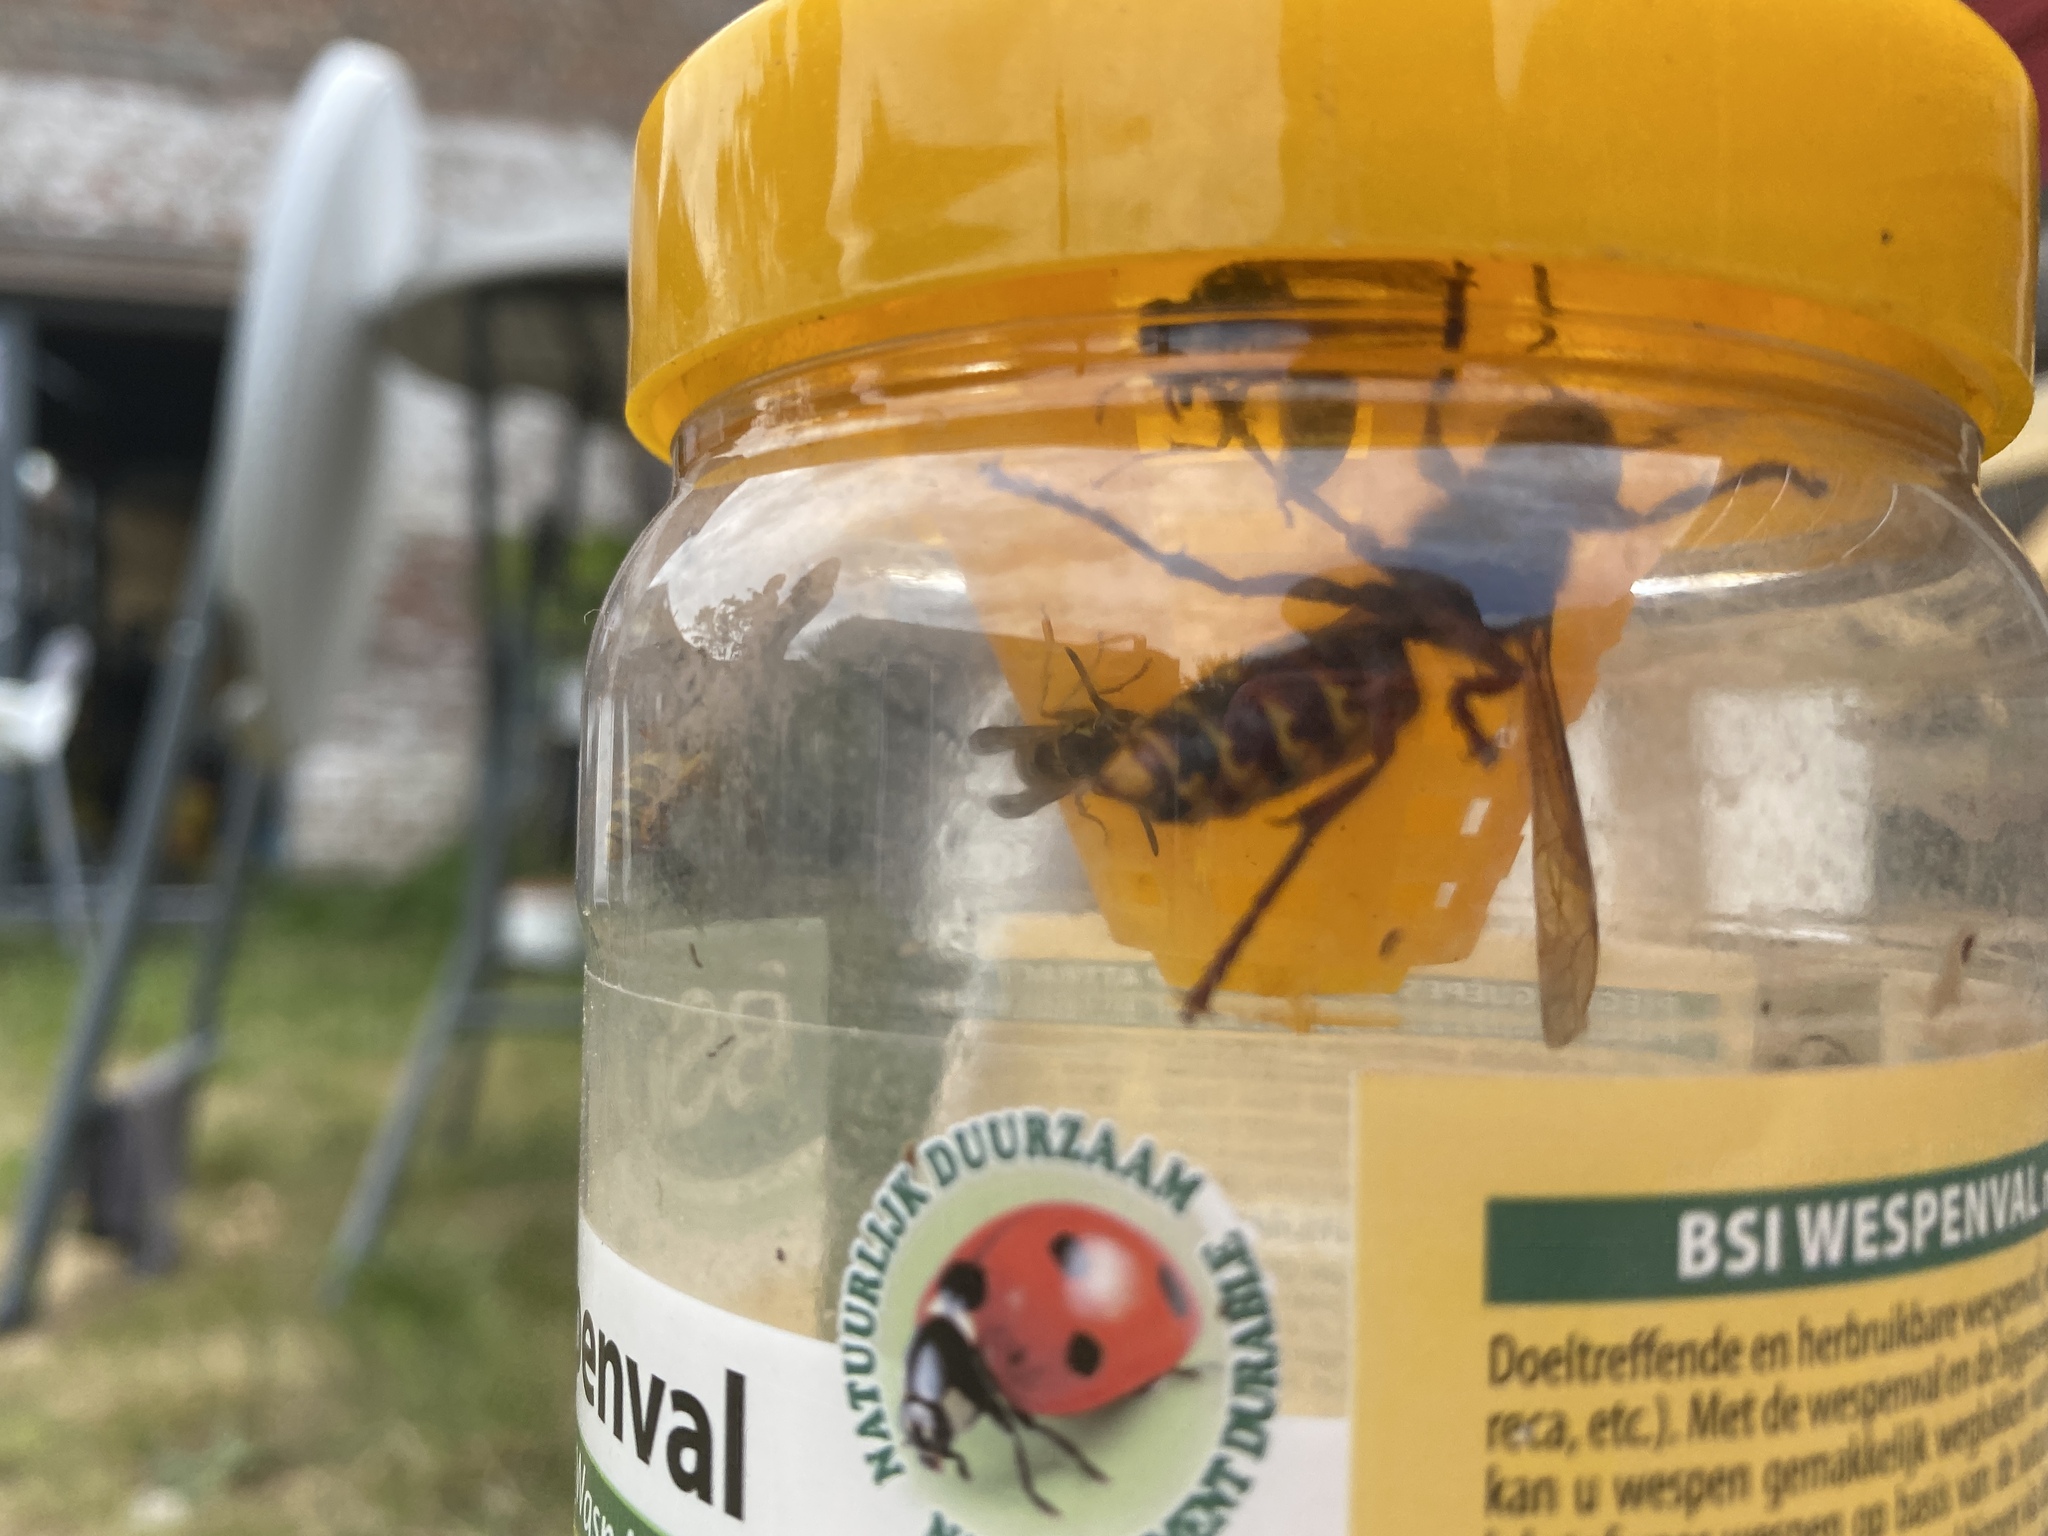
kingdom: Animalia
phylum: Arthropoda
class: Insecta
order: Hymenoptera
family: Vespidae
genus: Vespa
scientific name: Vespa crabro
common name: Hornet
